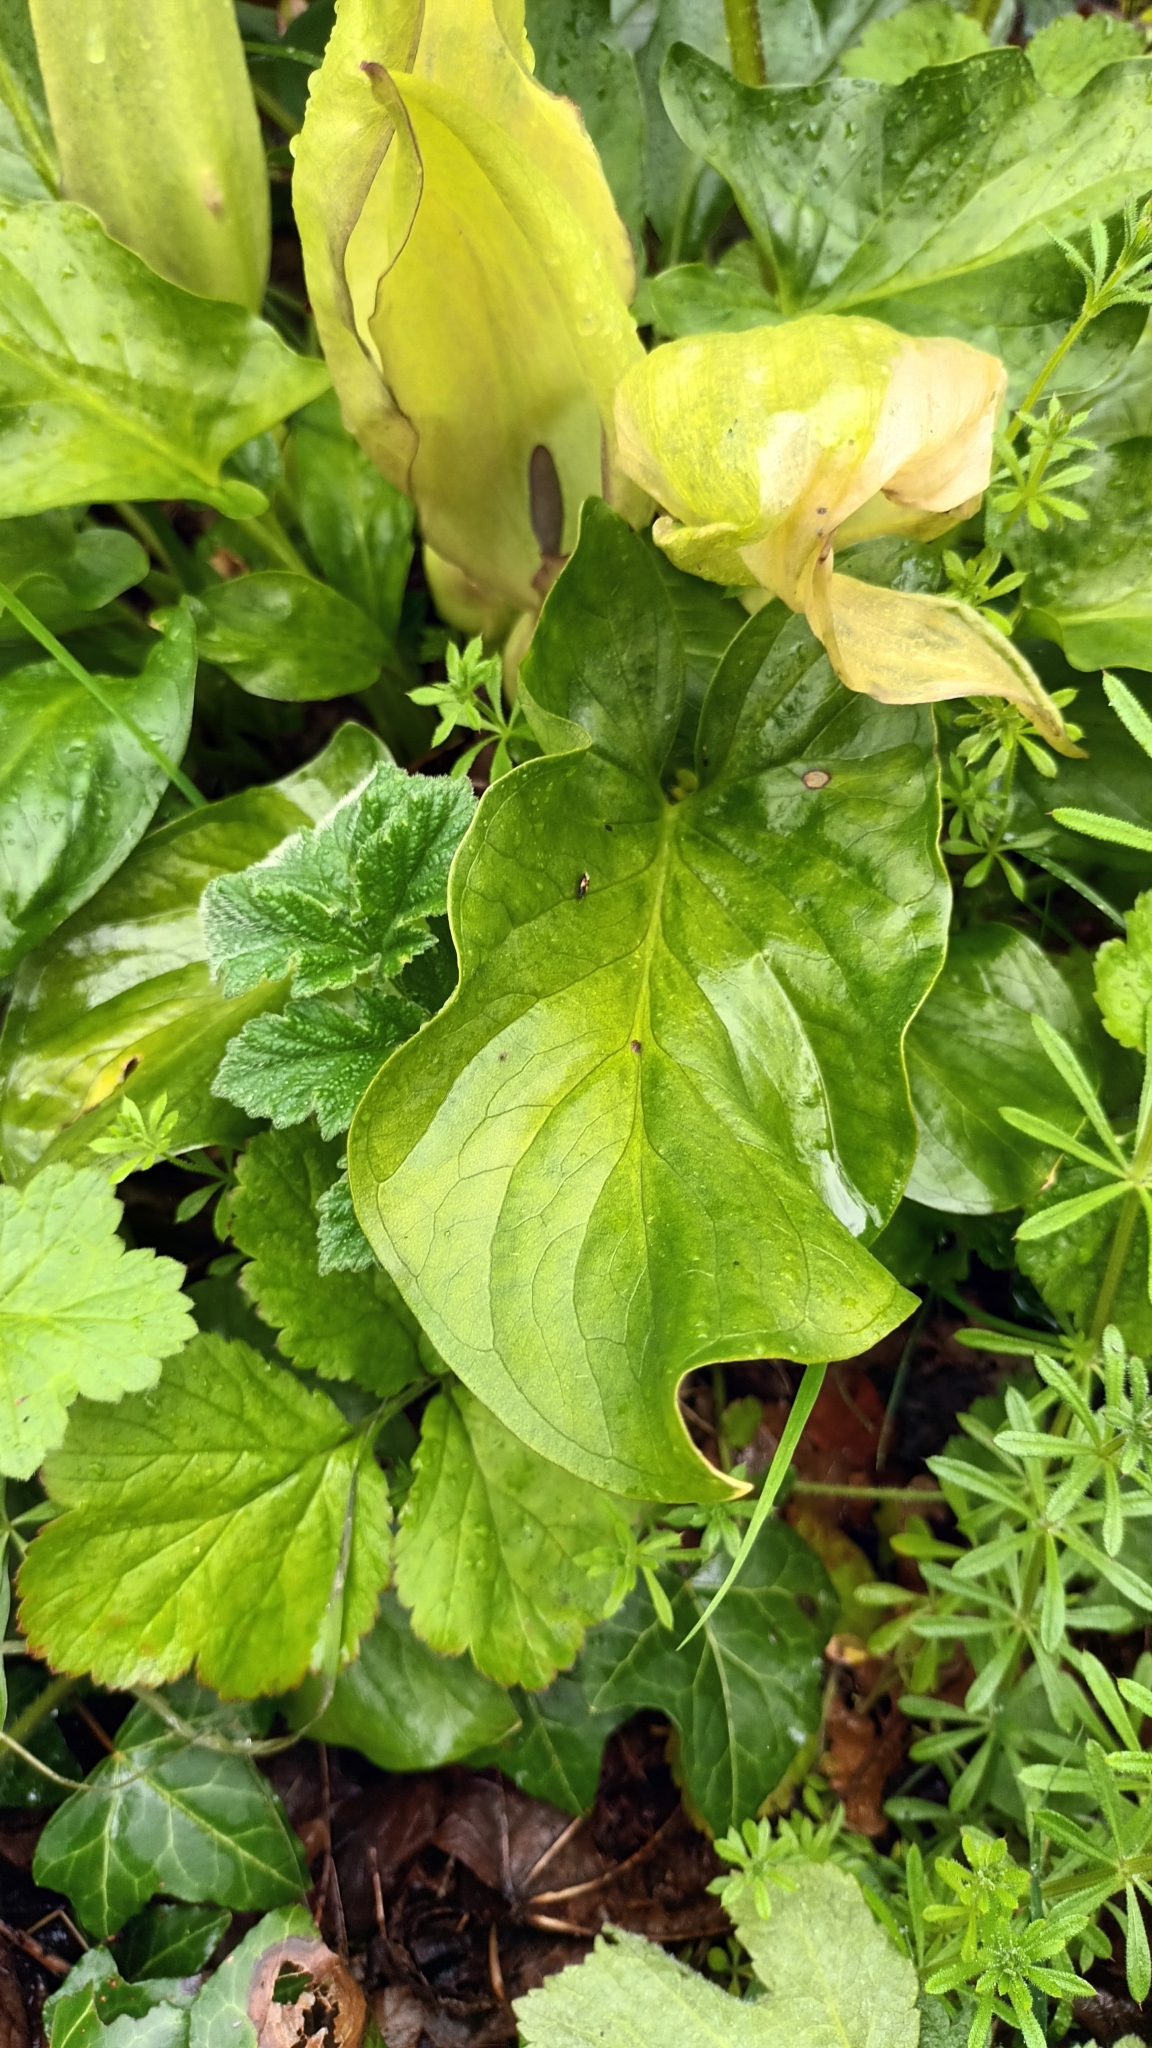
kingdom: Plantae
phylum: Tracheophyta
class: Liliopsida
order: Alismatales
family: Araceae
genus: Arum
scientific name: Arum maculatum
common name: Lords-and-ladies
